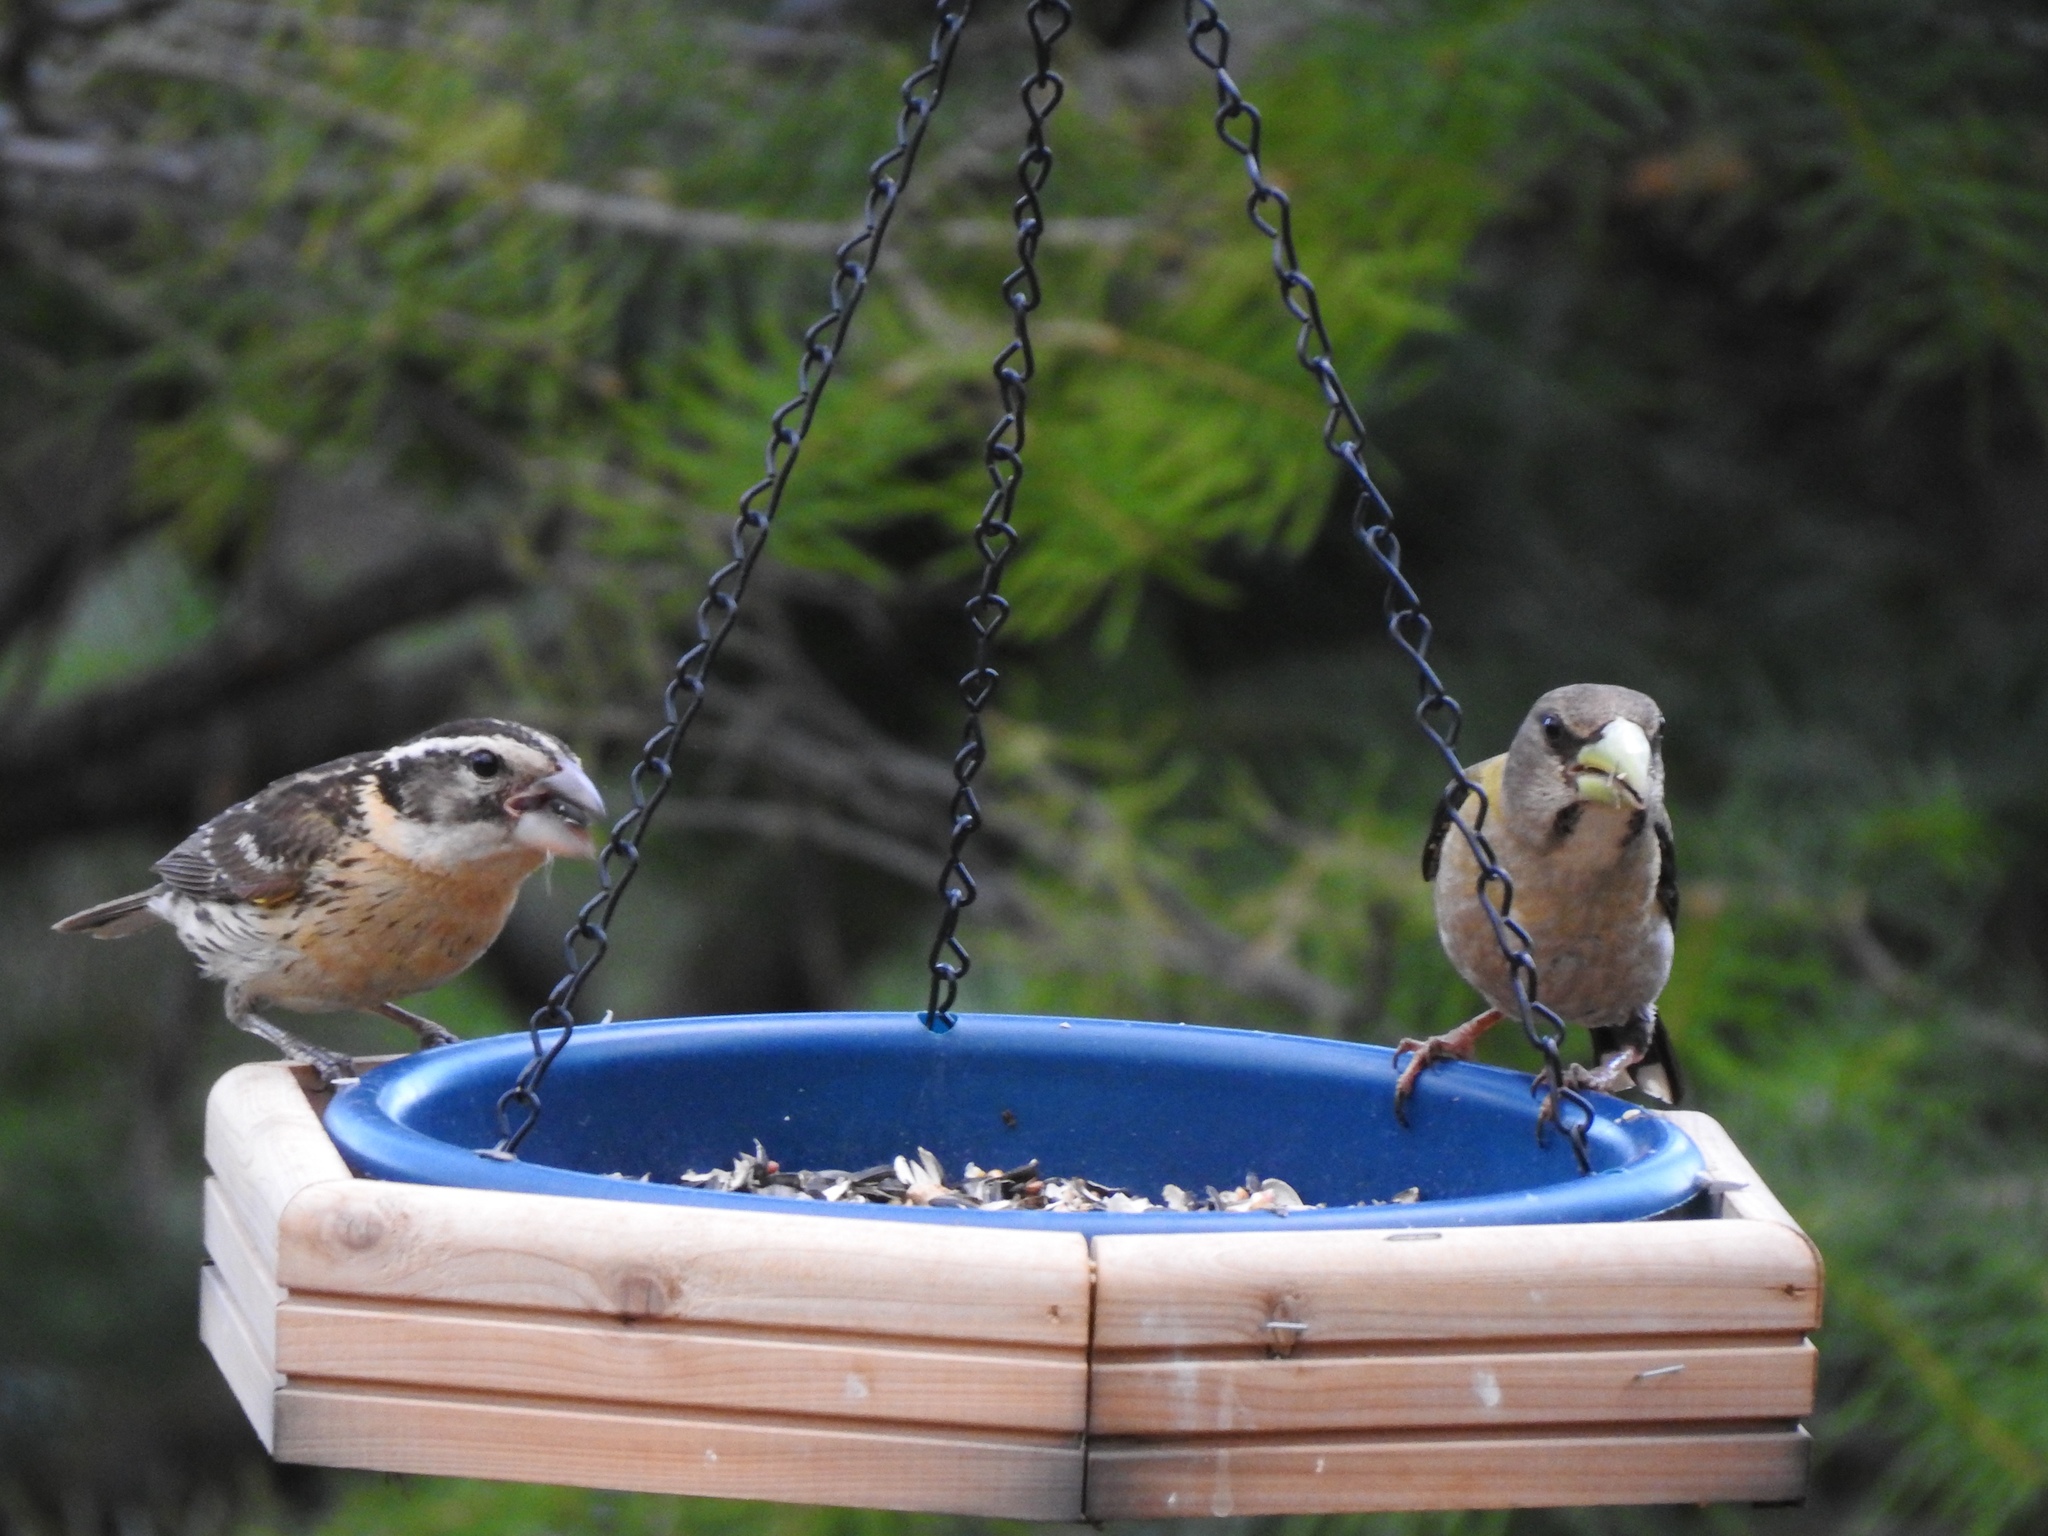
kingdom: Animalia
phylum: Chordata
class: Aves
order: Passeriformes
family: Cardinalidae
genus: Pheucticus
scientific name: Pheucticus melanocephalus
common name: Black-headed grosbeak
